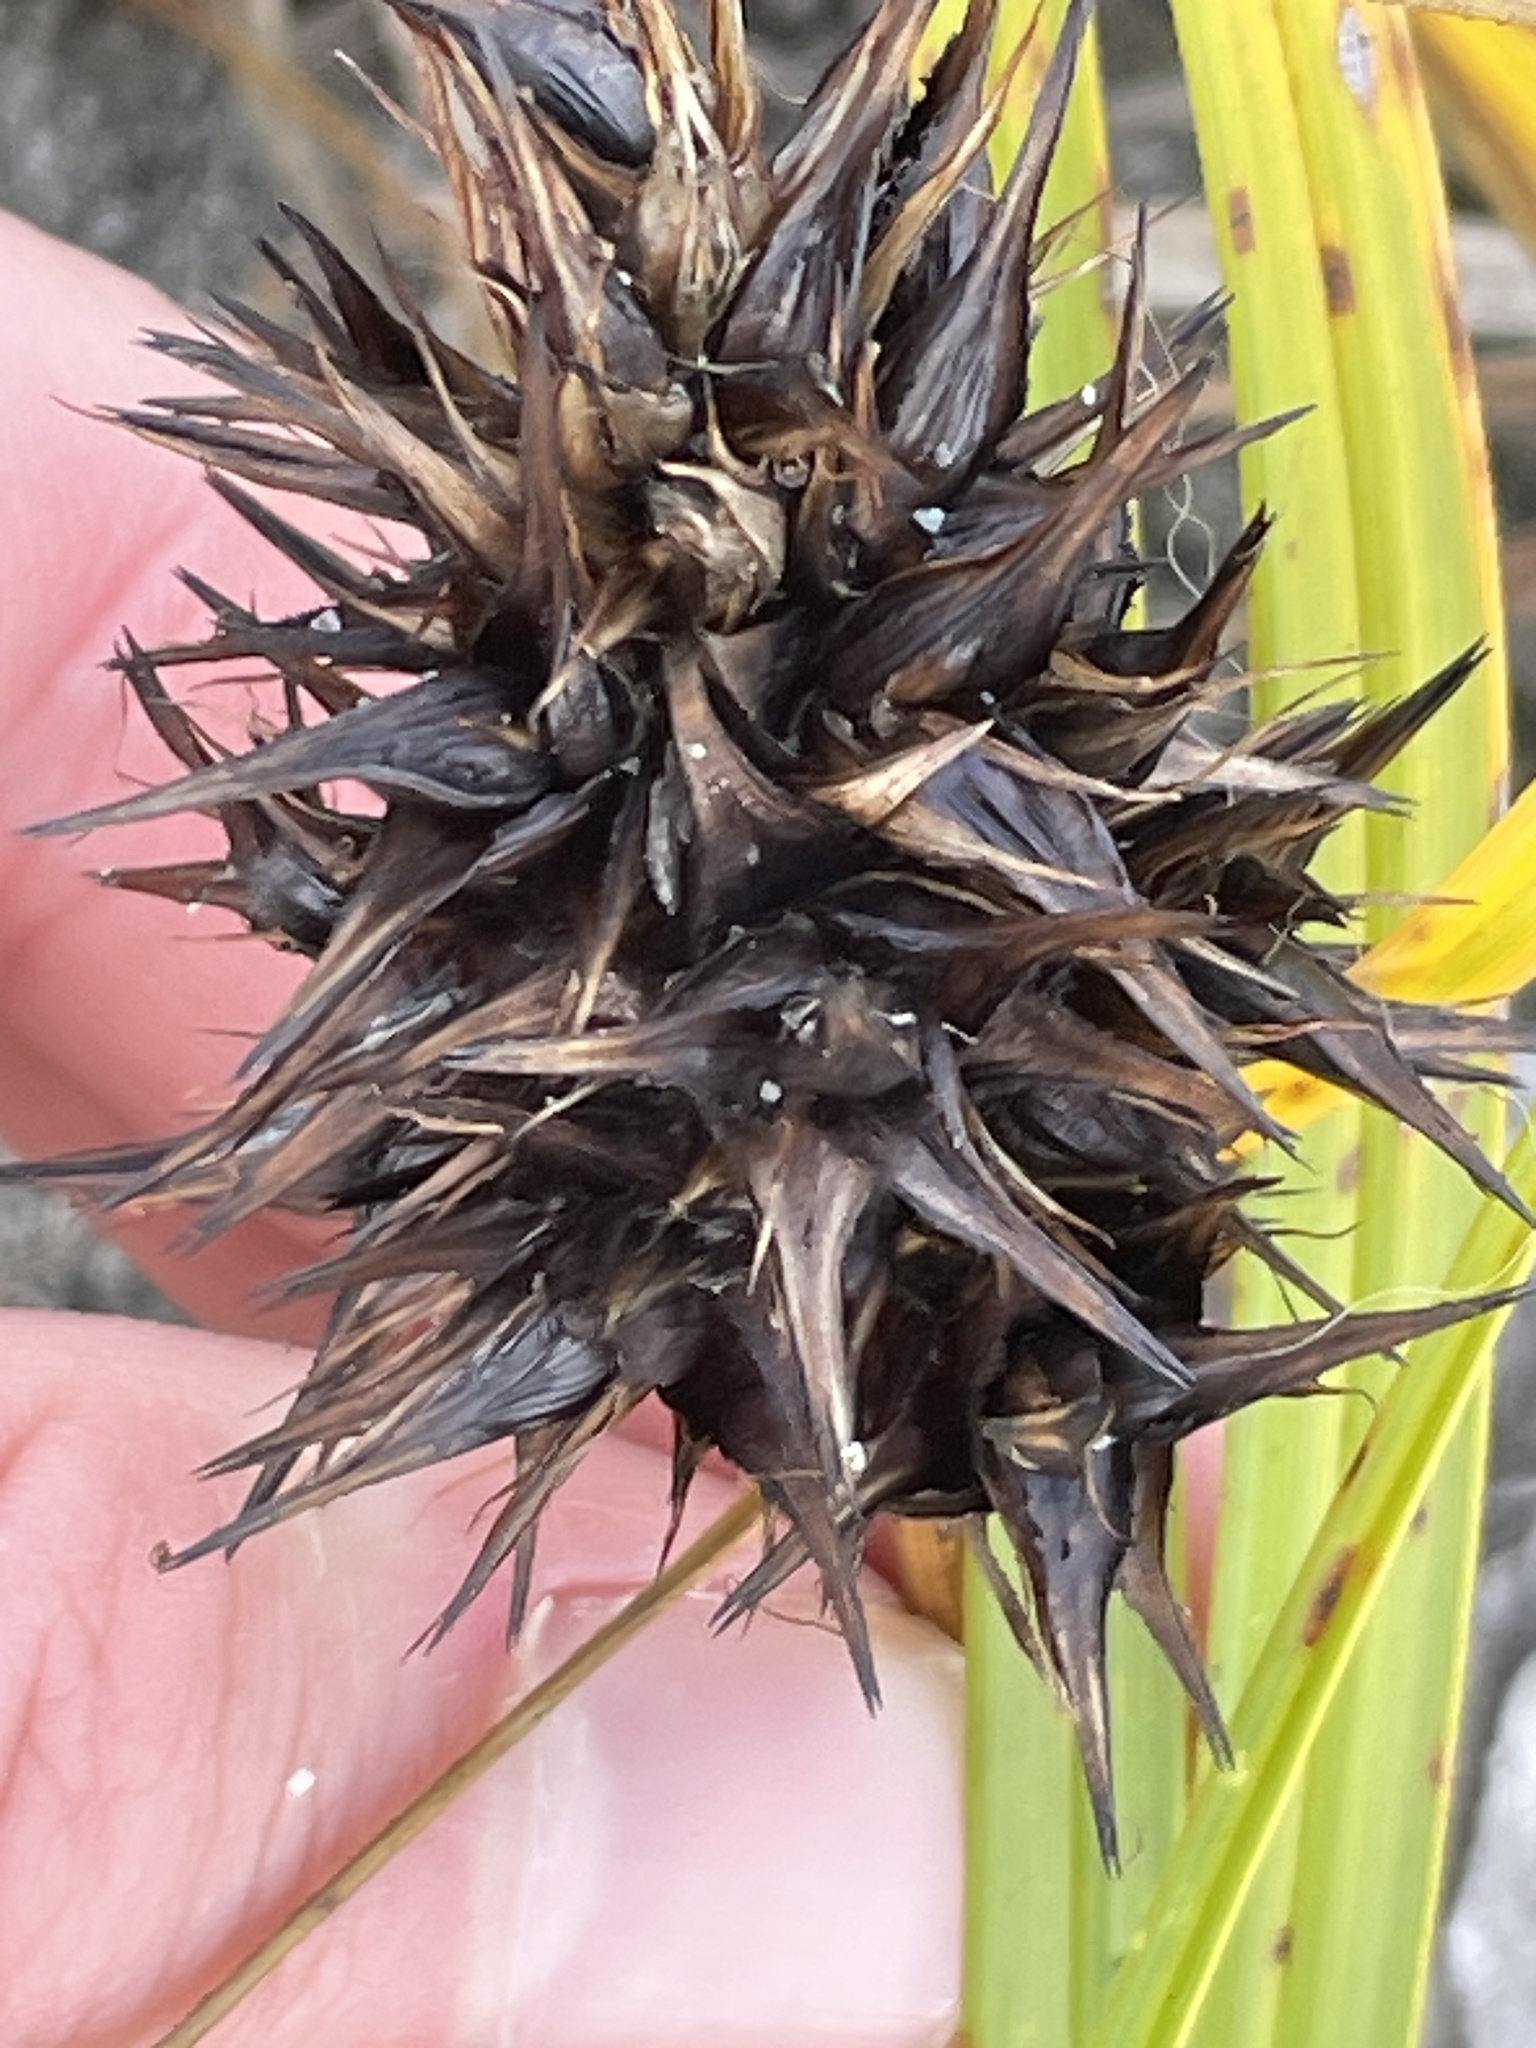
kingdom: Plantae
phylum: Tracheophyta
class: Liliopsida
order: Poales
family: Cyperaceae
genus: Carex
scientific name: Carex macrocephala
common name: Large-head sedge
